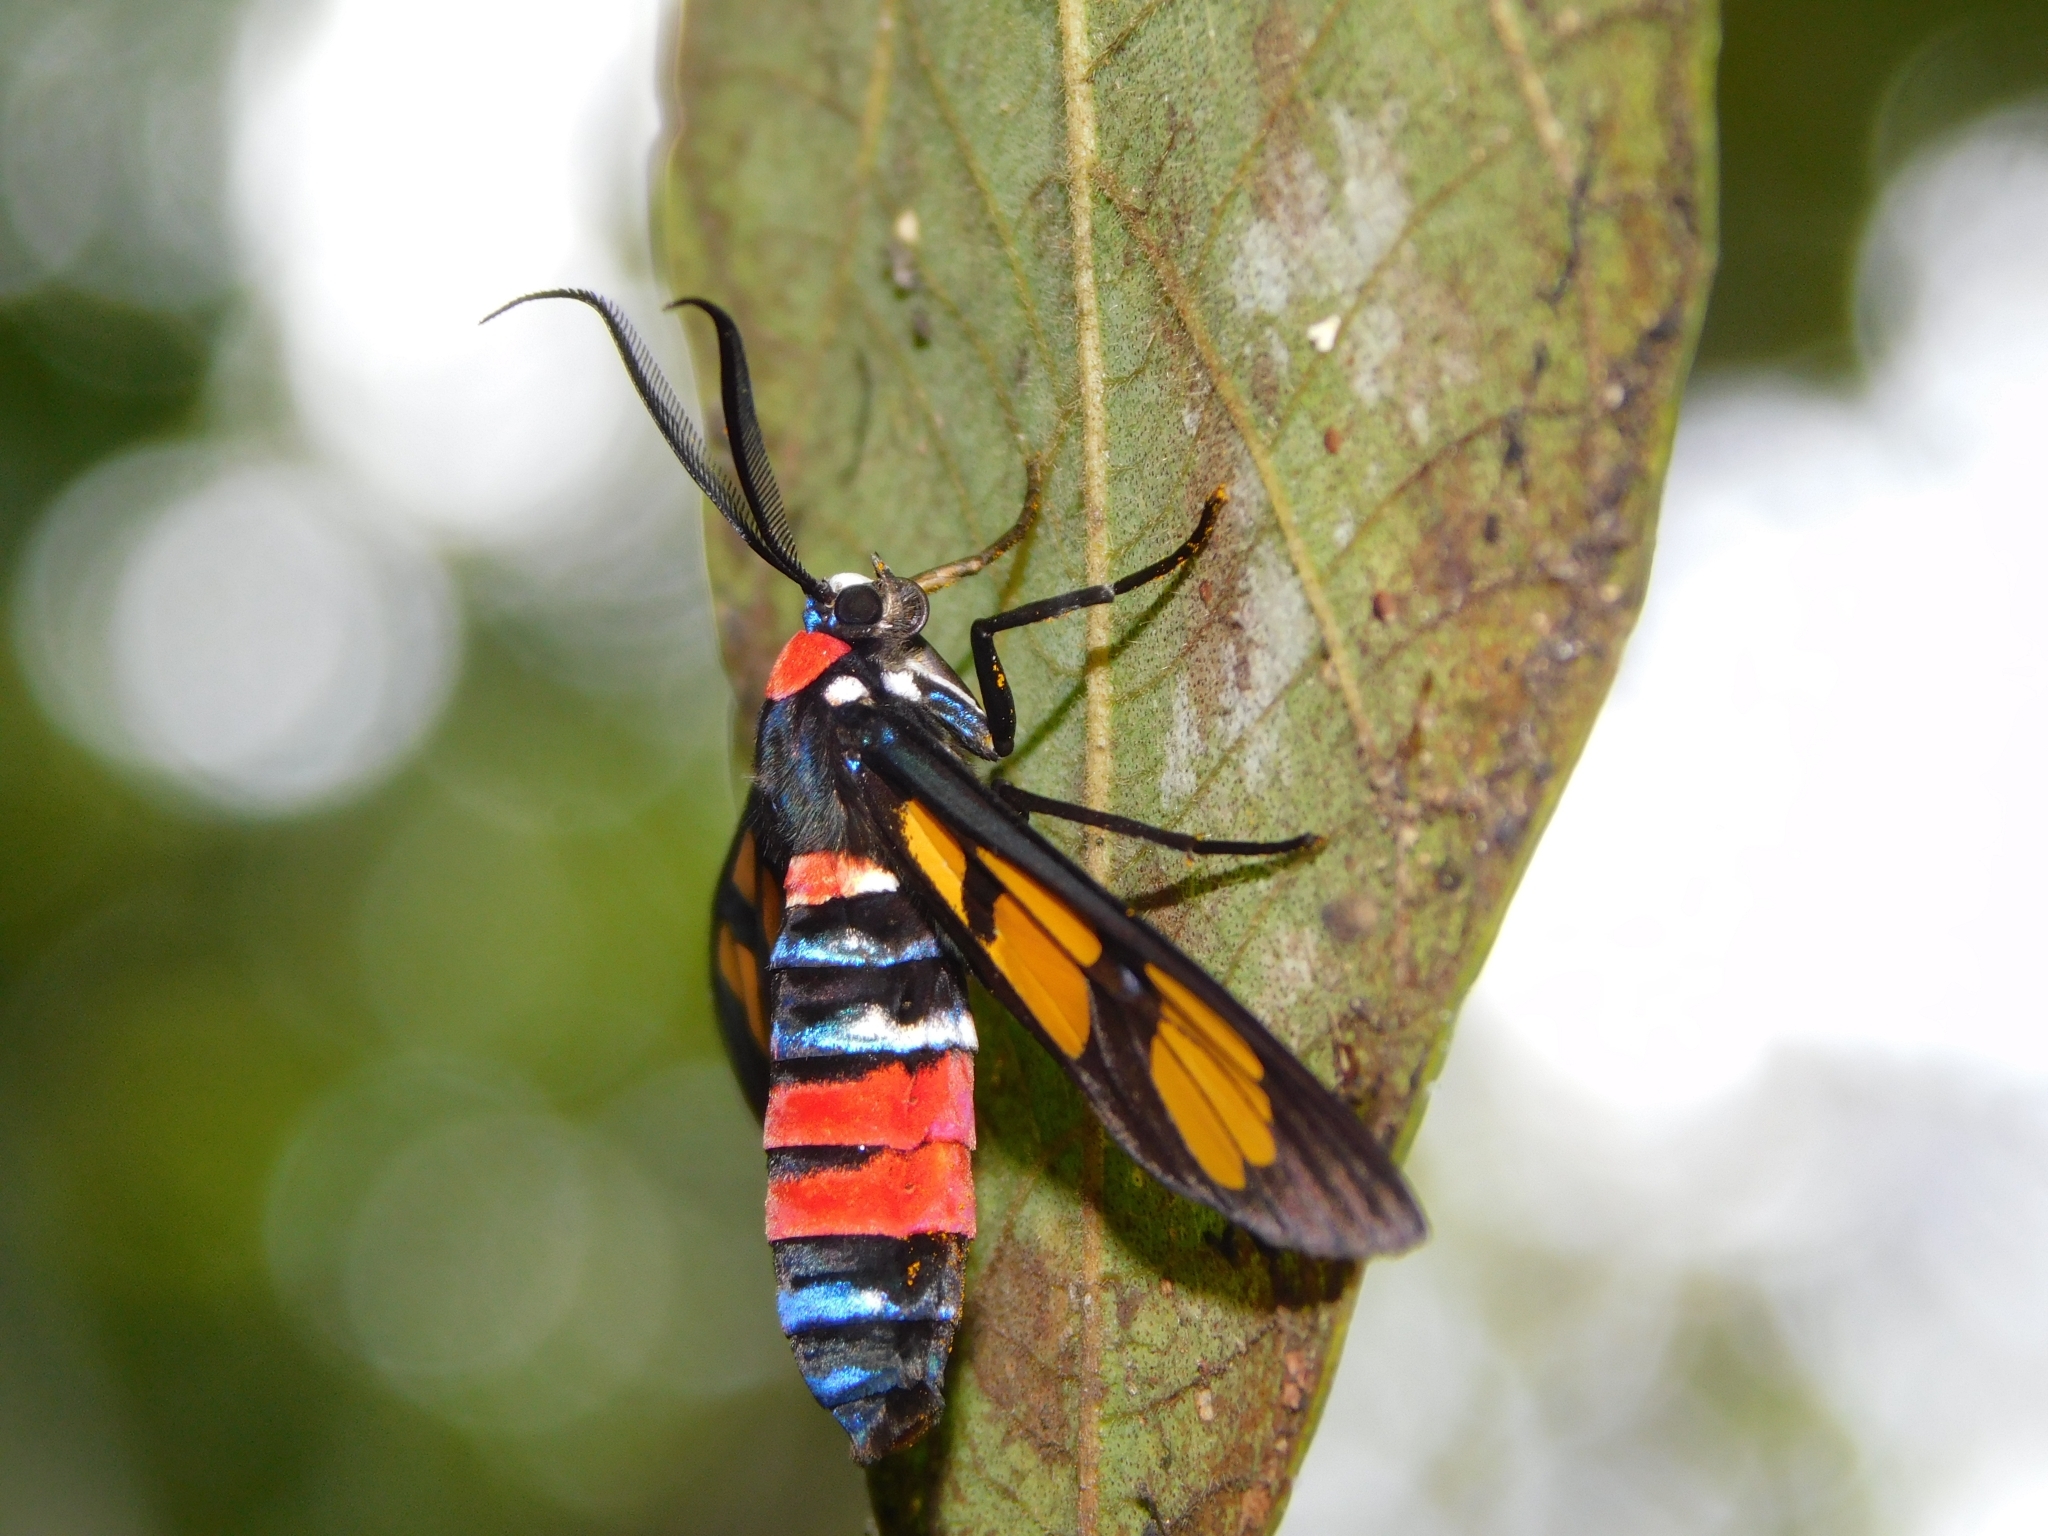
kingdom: Animalia
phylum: Arthropoda
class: Insecta
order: Lepidoptera
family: Erebidae
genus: Euchromia
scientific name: Euchromia polymena
